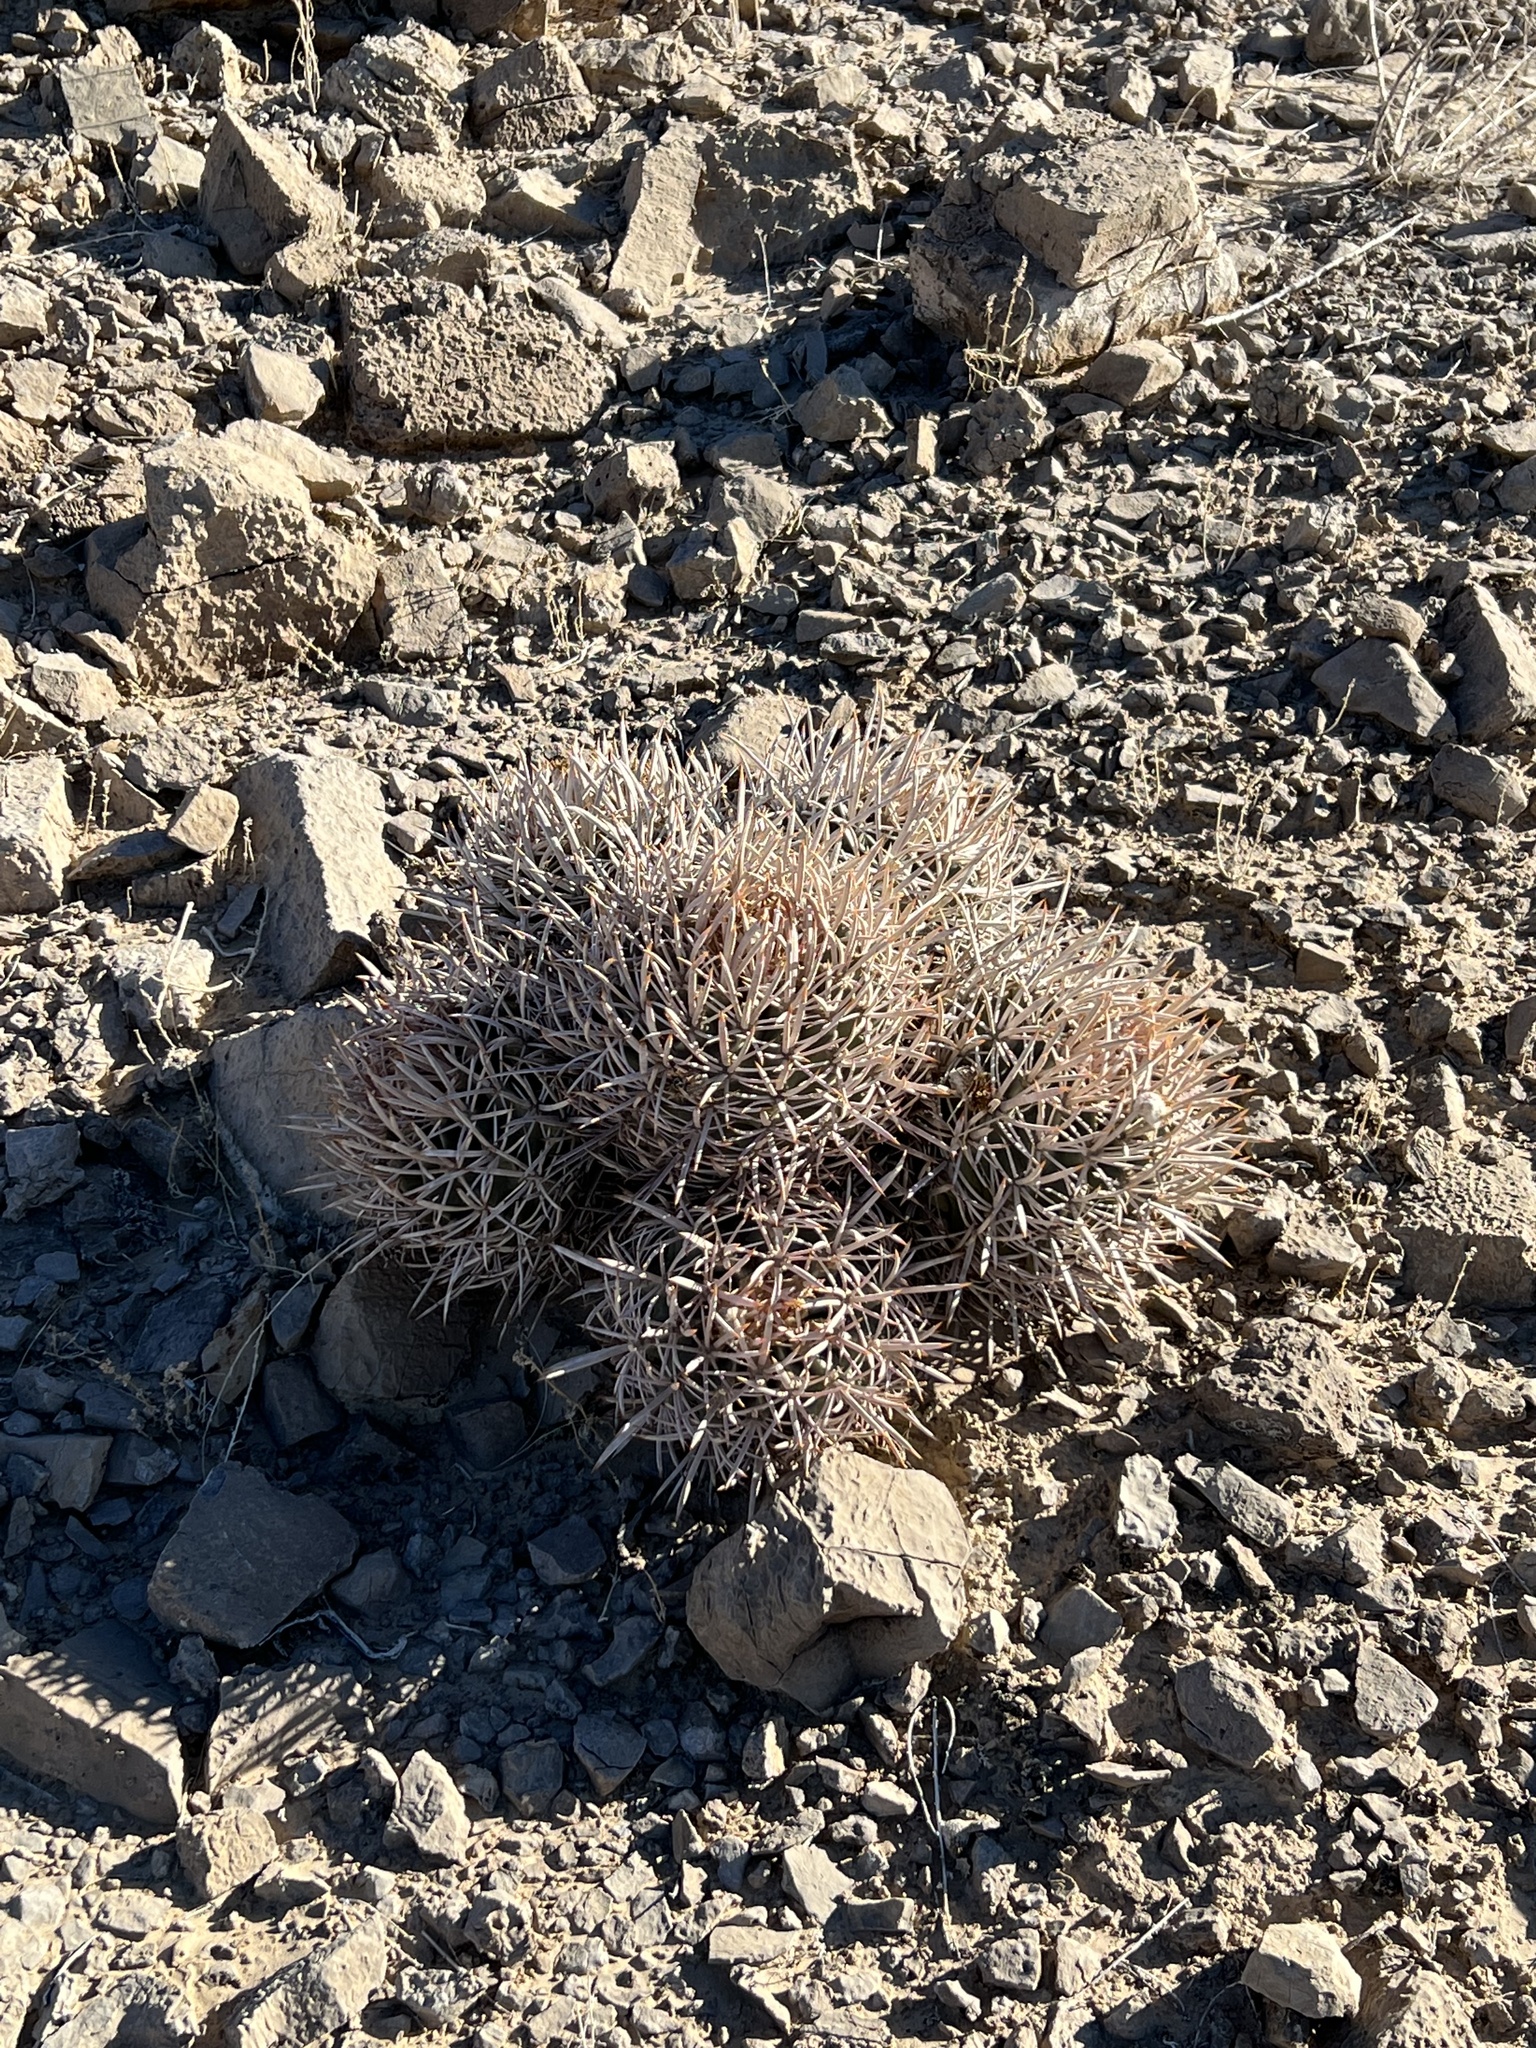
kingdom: Plantae
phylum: Tracheophyta
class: Magnoliopsida
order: Caryophyllales
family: Cactaceae
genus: Echinocactus
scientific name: Echinocactus polycephalus
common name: Cottontop cactus
